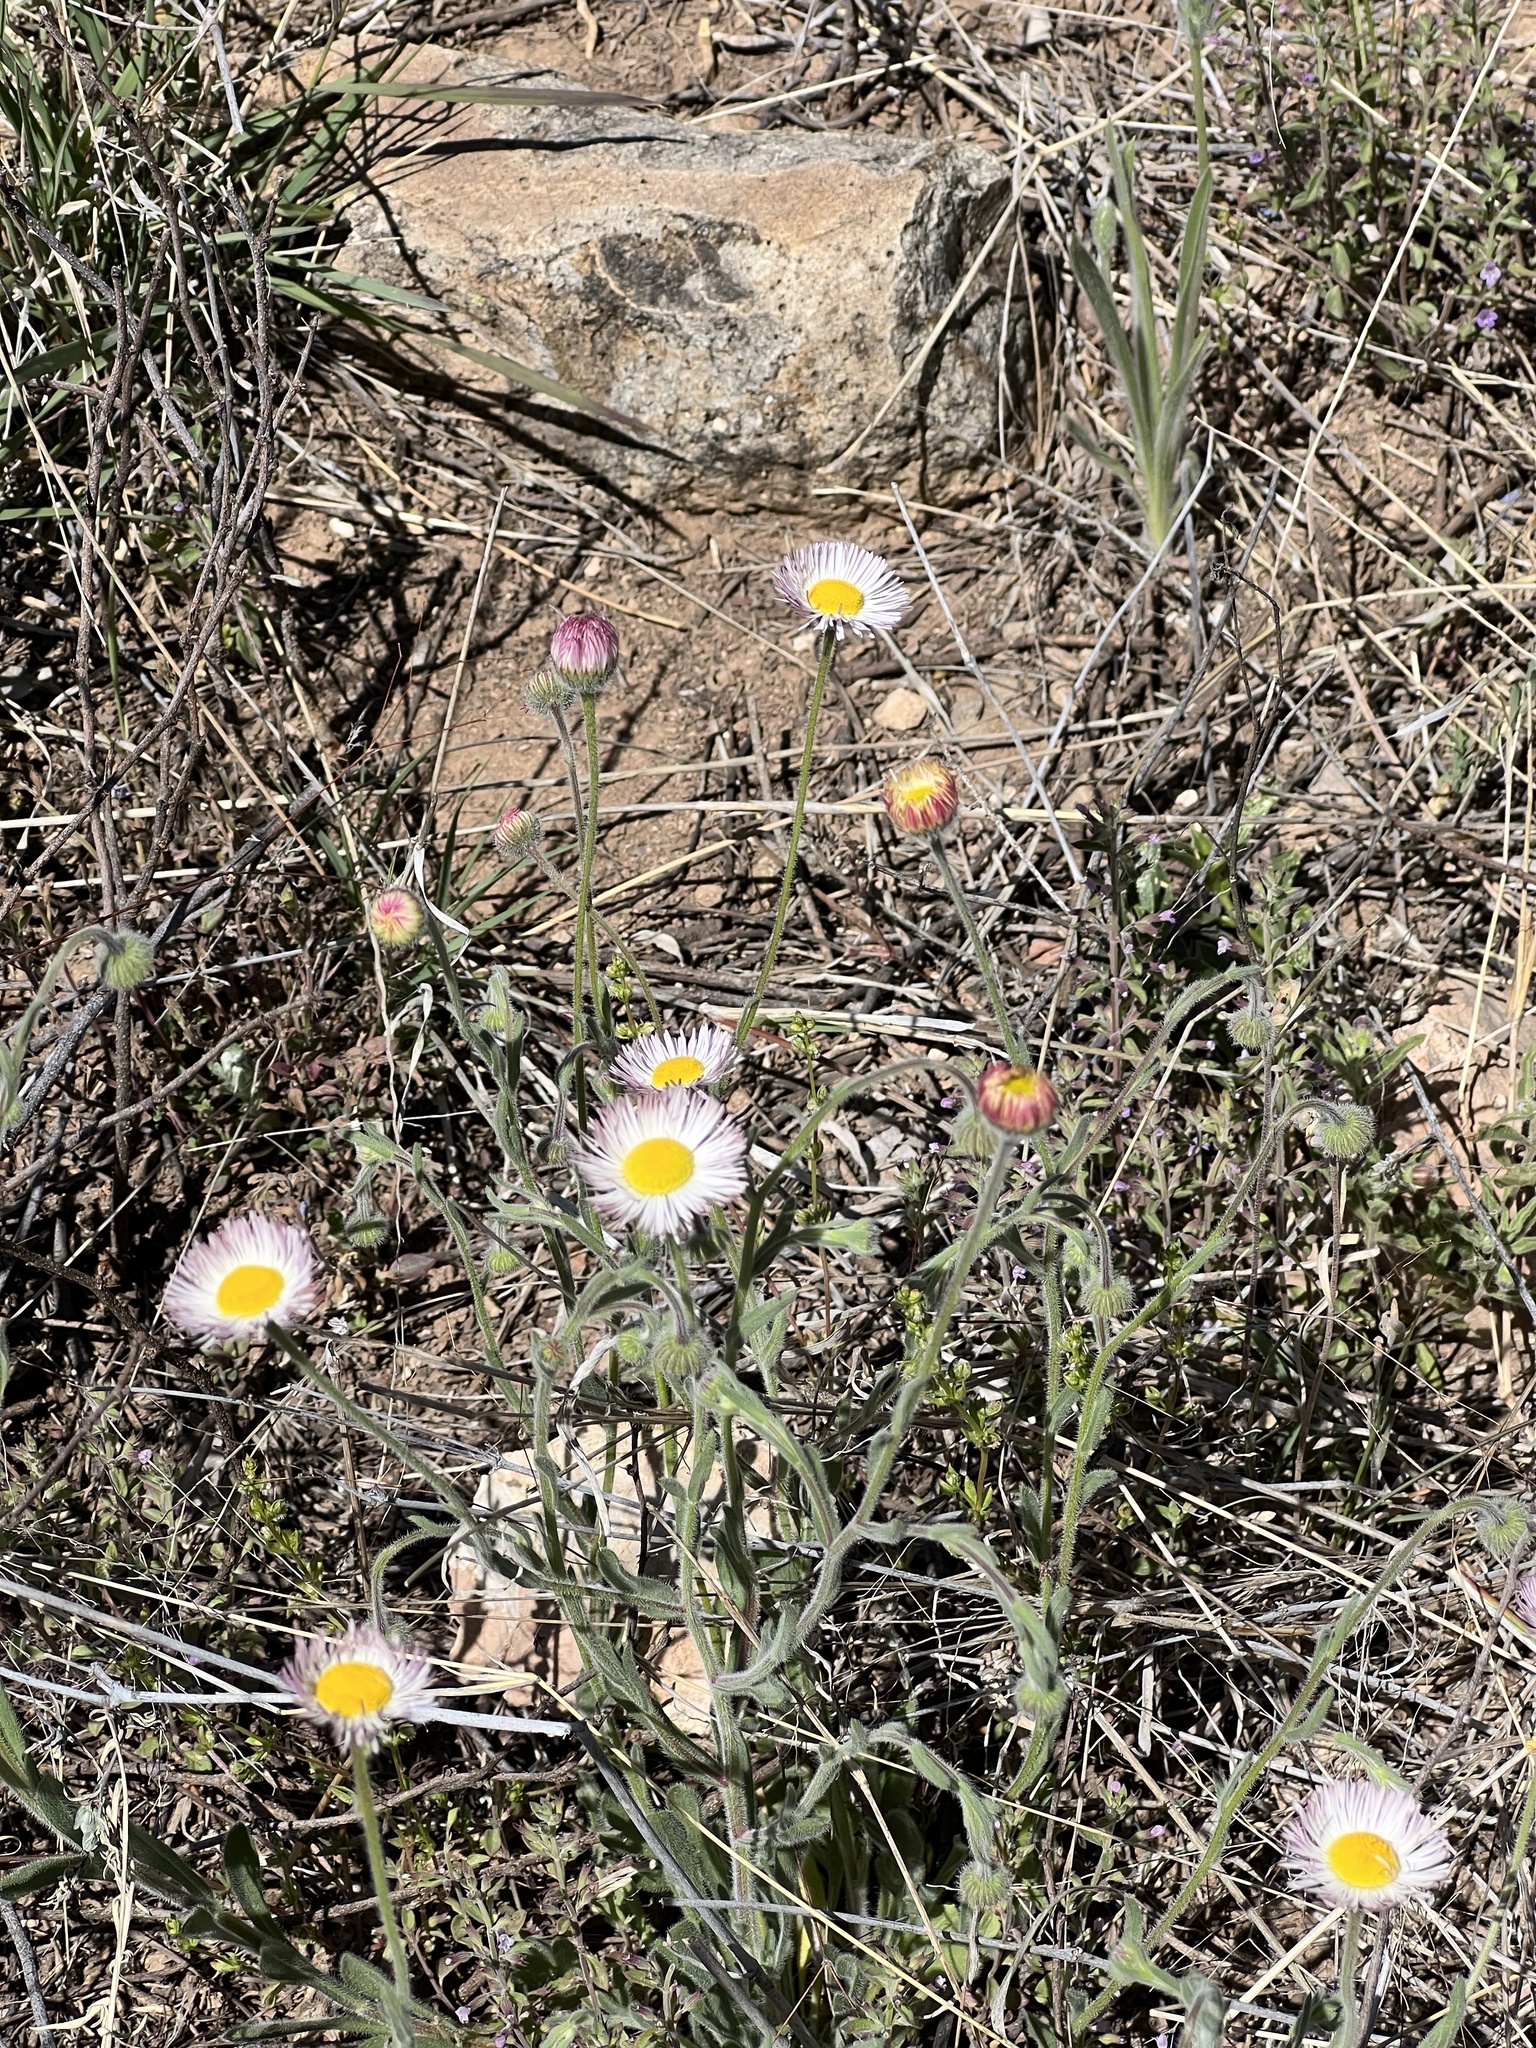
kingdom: Plantae
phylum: Tracheophyta
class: Magnoliopsida
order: Asterales
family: Asteraceae
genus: Erigeron
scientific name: Erigeron divergens
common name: Diffuse fleabane
